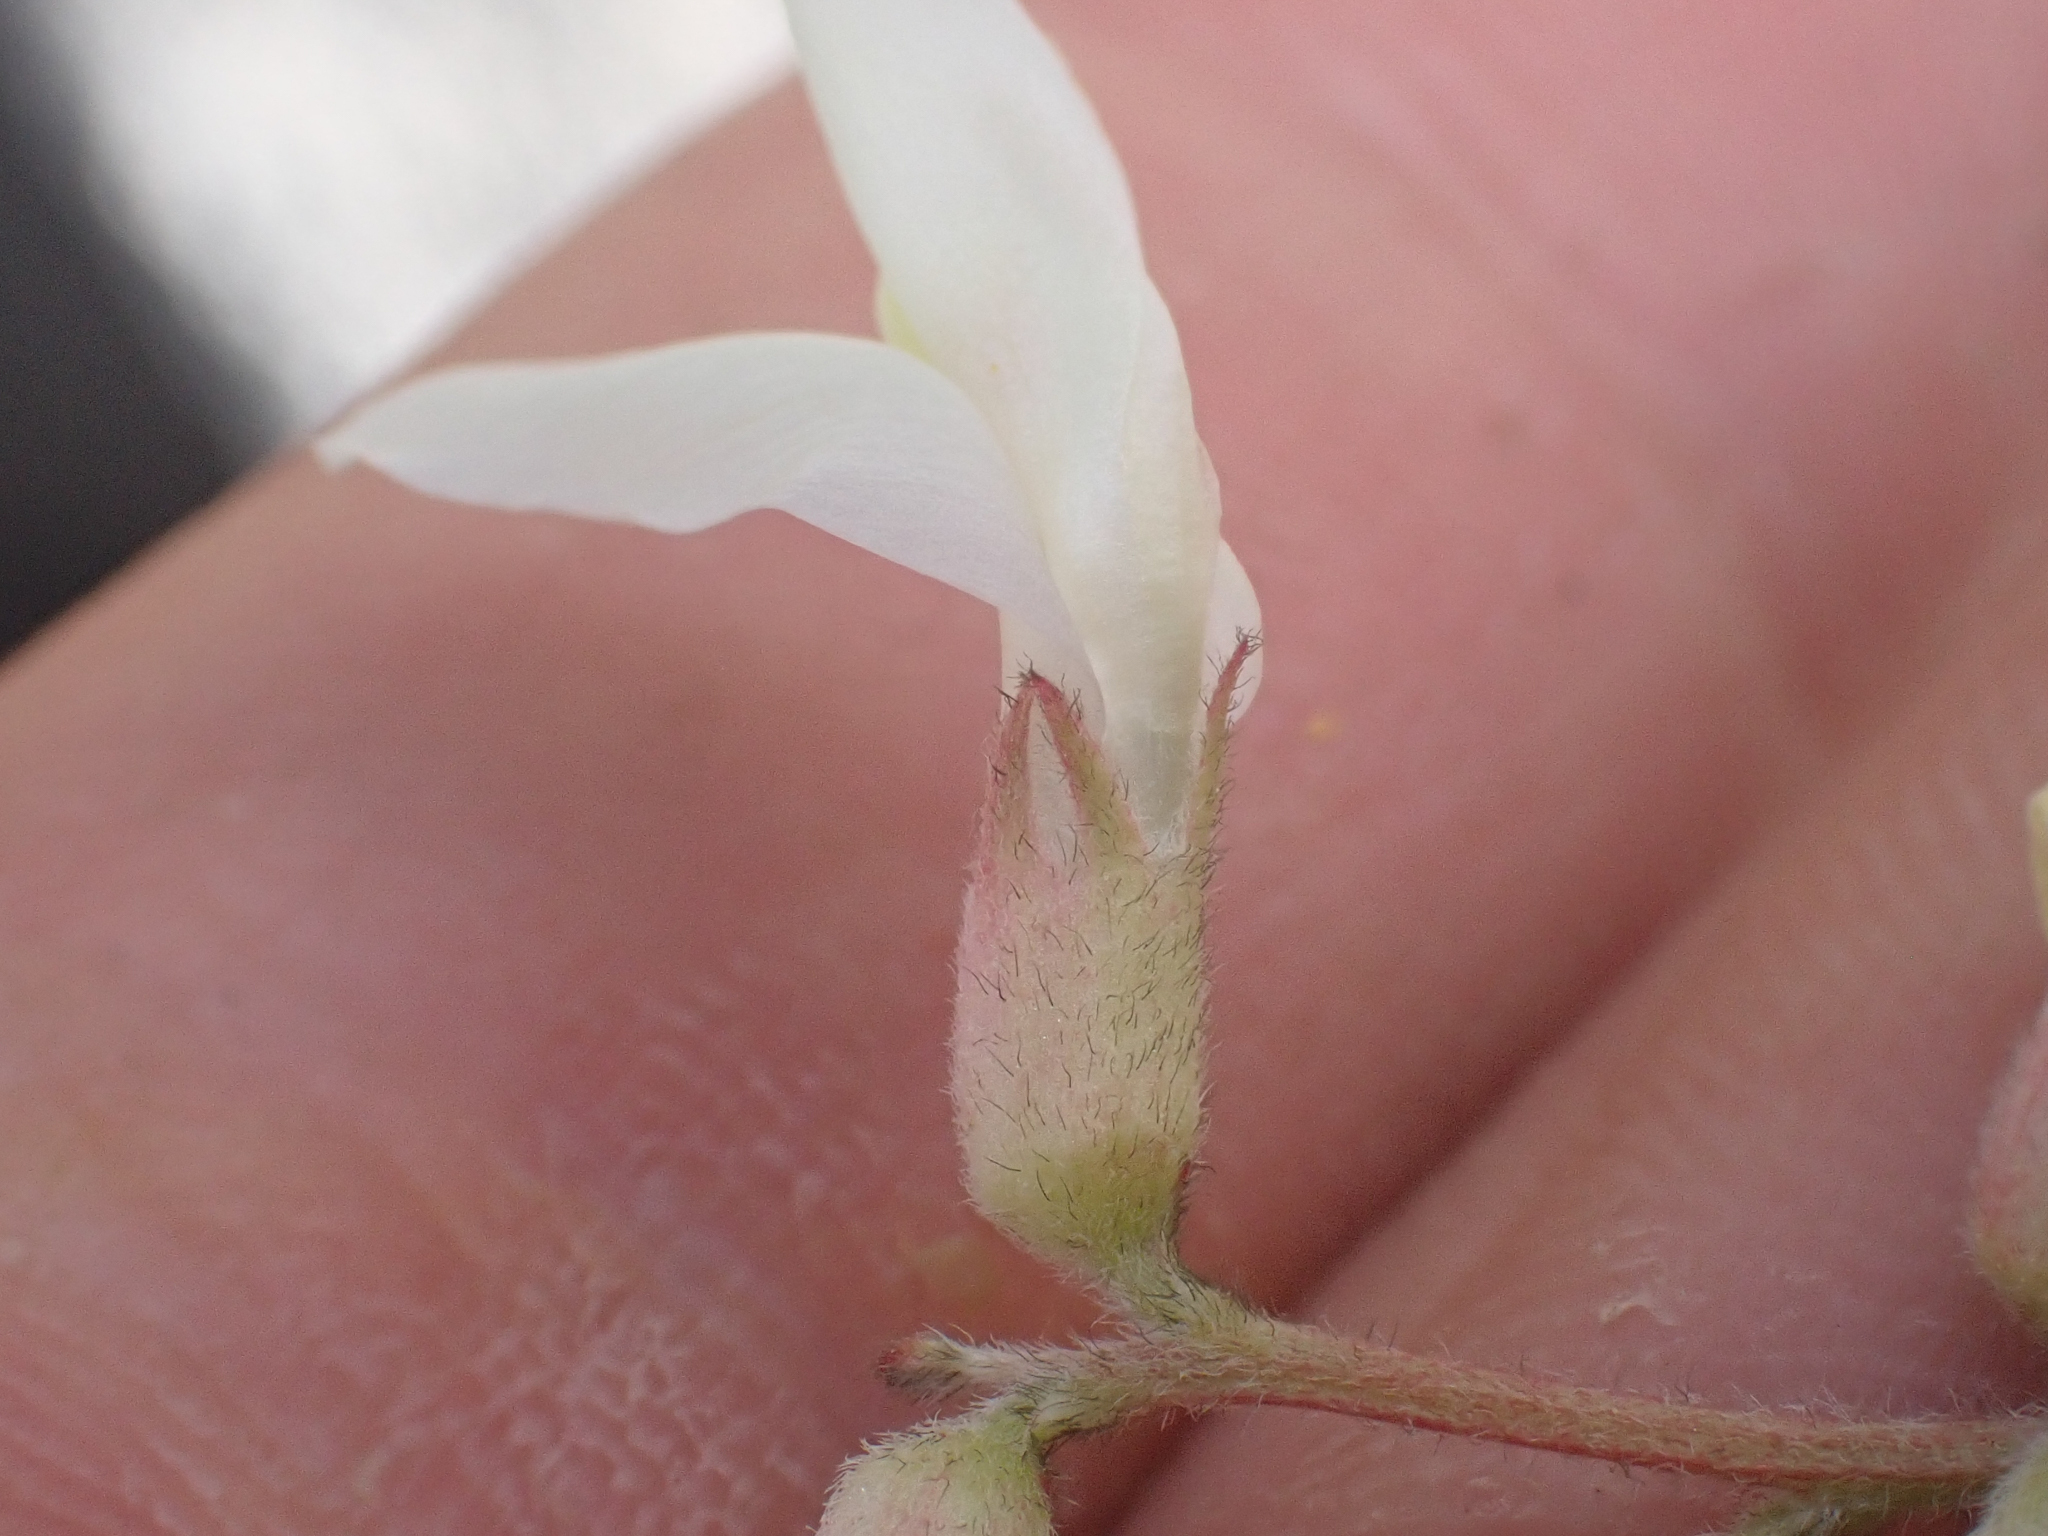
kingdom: Plantae
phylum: Tracheophyta
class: Magnoliopsida
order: Fabales
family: Fabaceae
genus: Astragalus
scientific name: Astragalus congdonii
